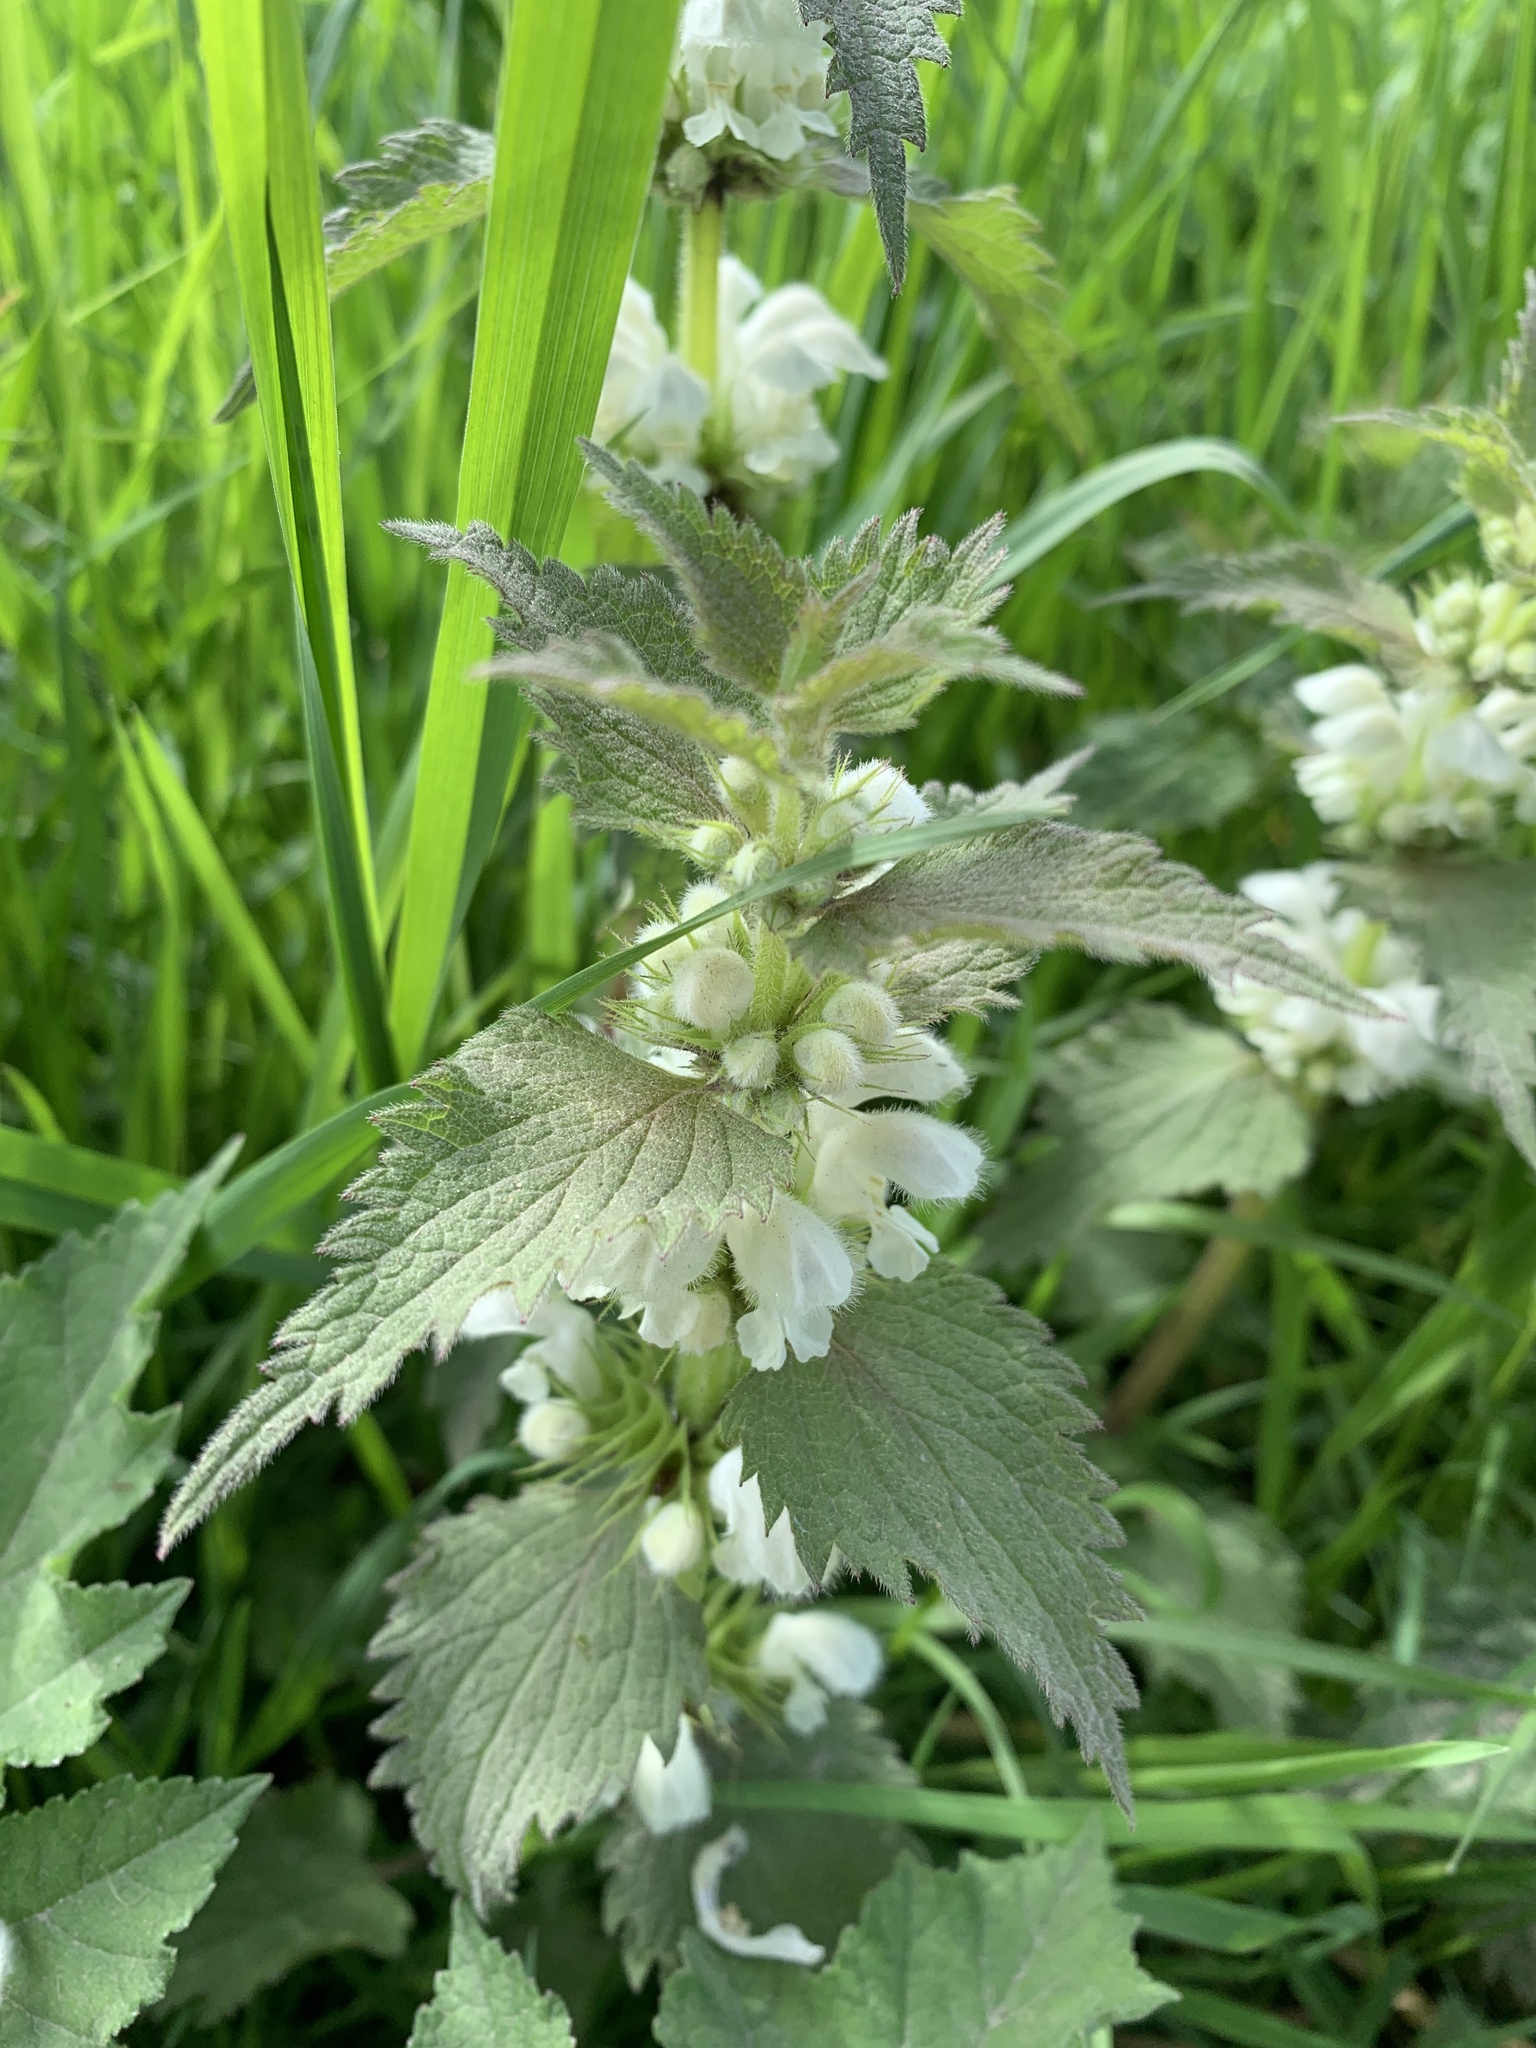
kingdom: Plantae
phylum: Tracheophyta
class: Magnoliopsida
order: Lamiales
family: Lamiaceae
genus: Lamium
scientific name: Lamium album
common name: White dead-nettle
